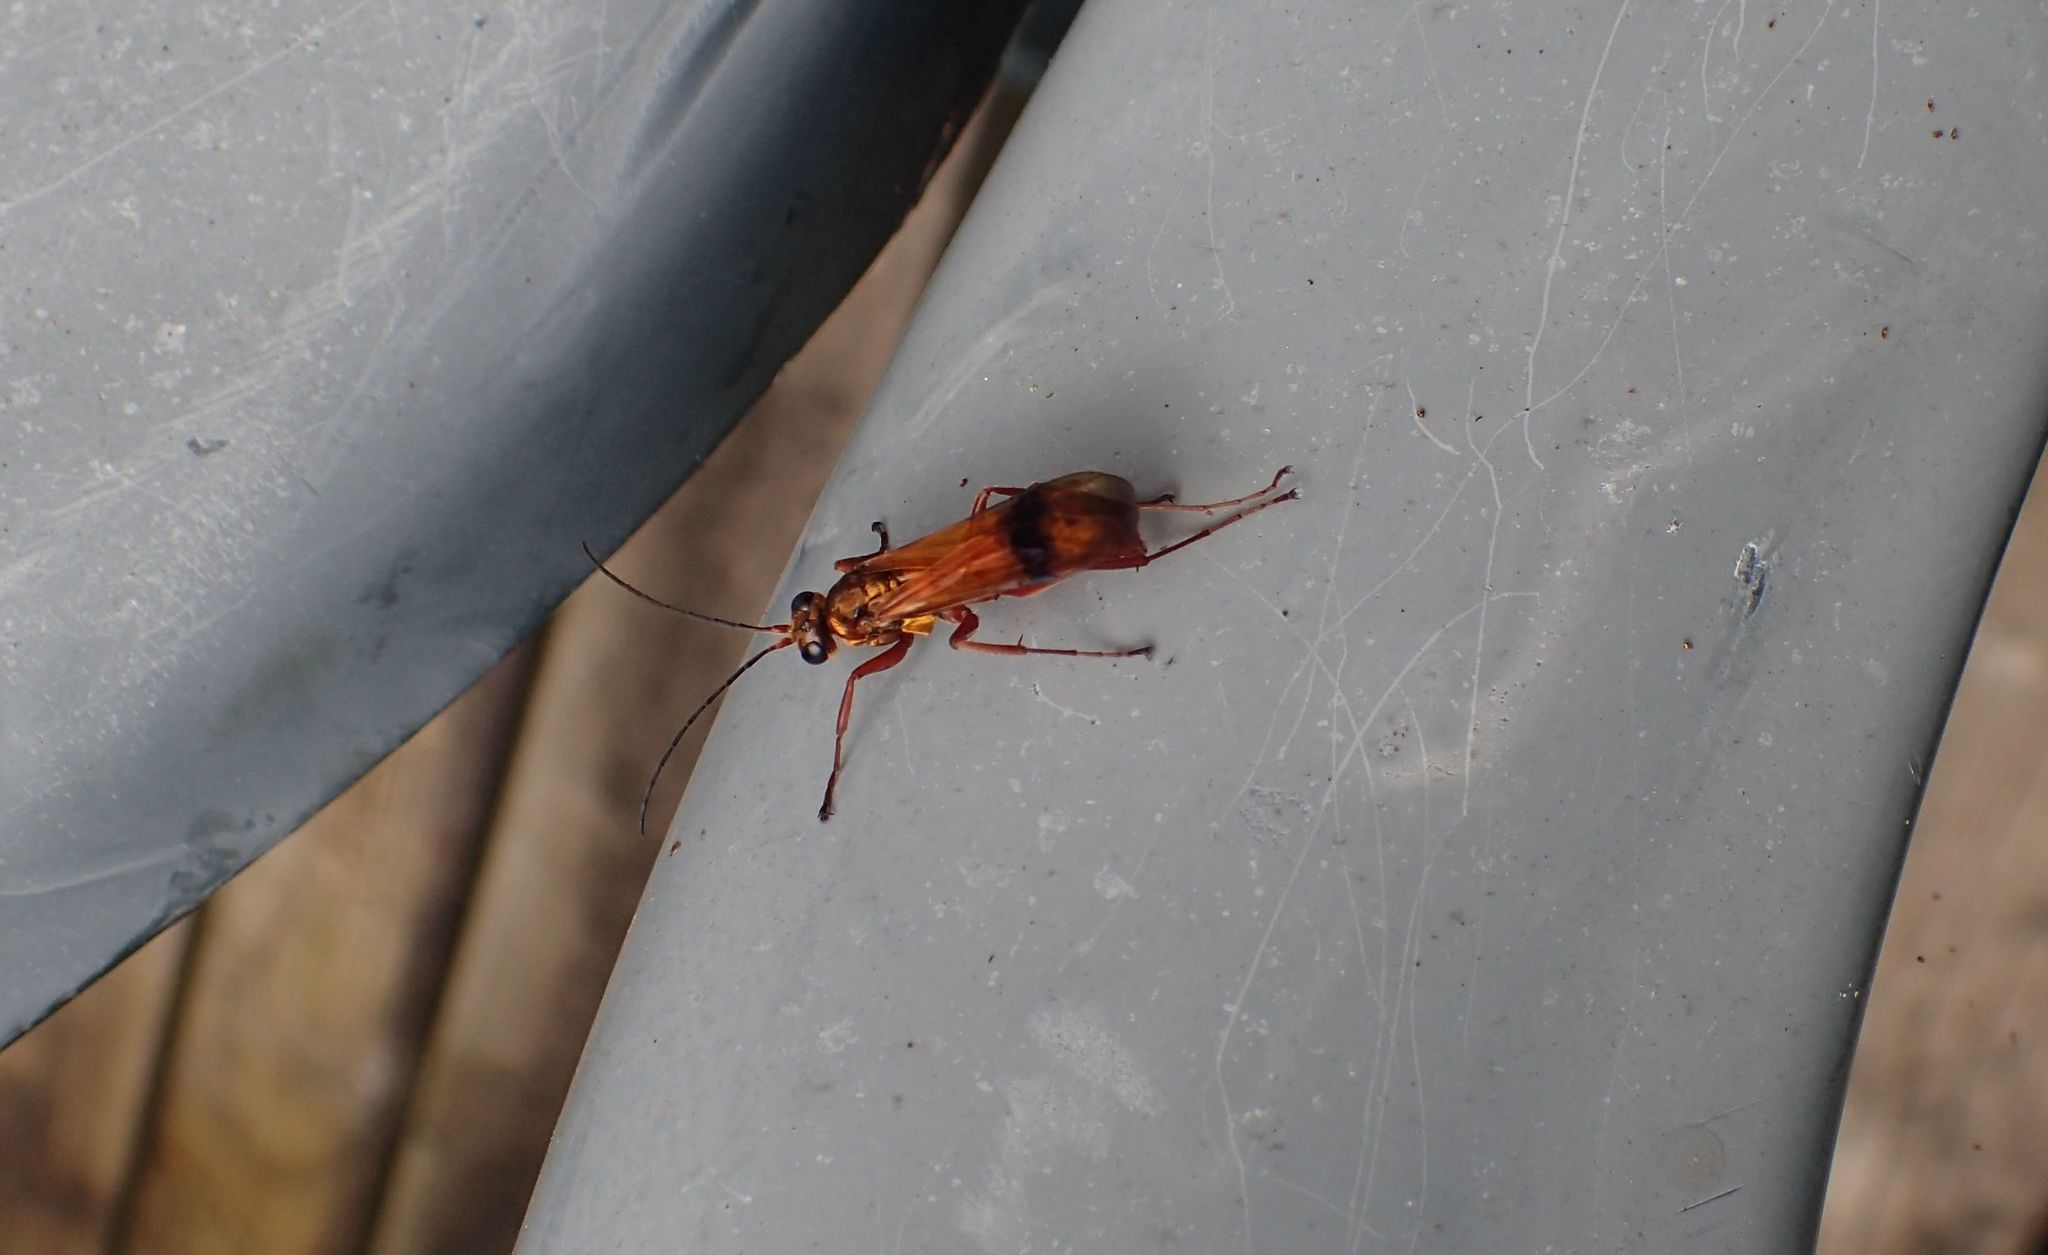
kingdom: Animalia
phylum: Arthropoda
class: Insecta
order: Hymenoptera
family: Pompilidae
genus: Sphictostethus
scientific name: Sphictostethus nitidus
